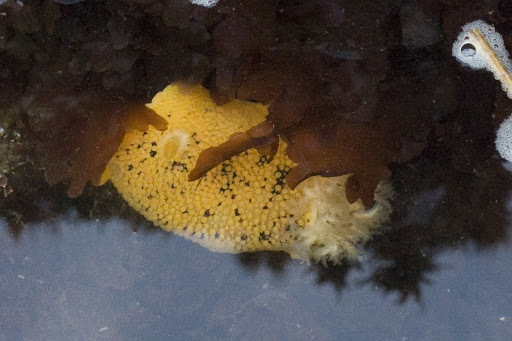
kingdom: Animalia
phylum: Mollusca
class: Gastropoda
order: Nudibranchia
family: Discodorididae
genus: Peltodoris
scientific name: Peltodoris nobilis
